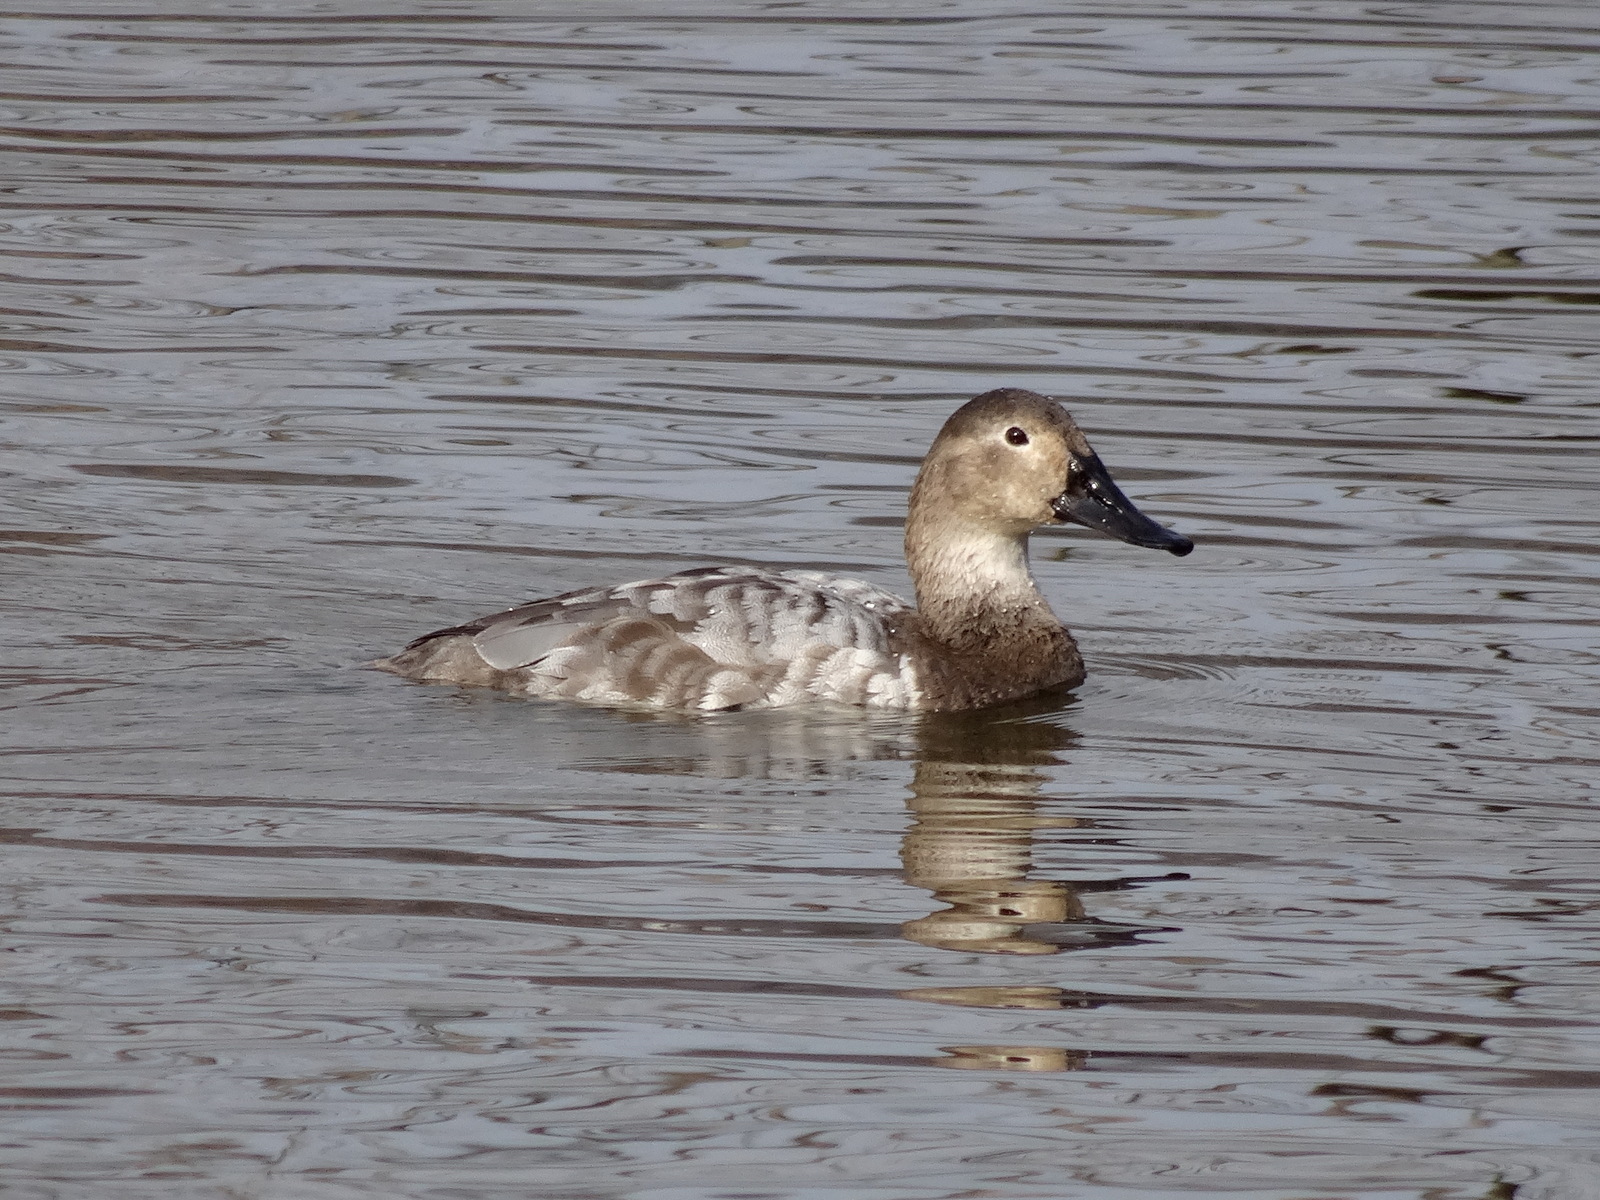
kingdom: Animalia
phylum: Chordata
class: Aves
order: Anseriformes
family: Anatidae
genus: Aythya
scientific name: Aythya valisineria
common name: Canvasback
